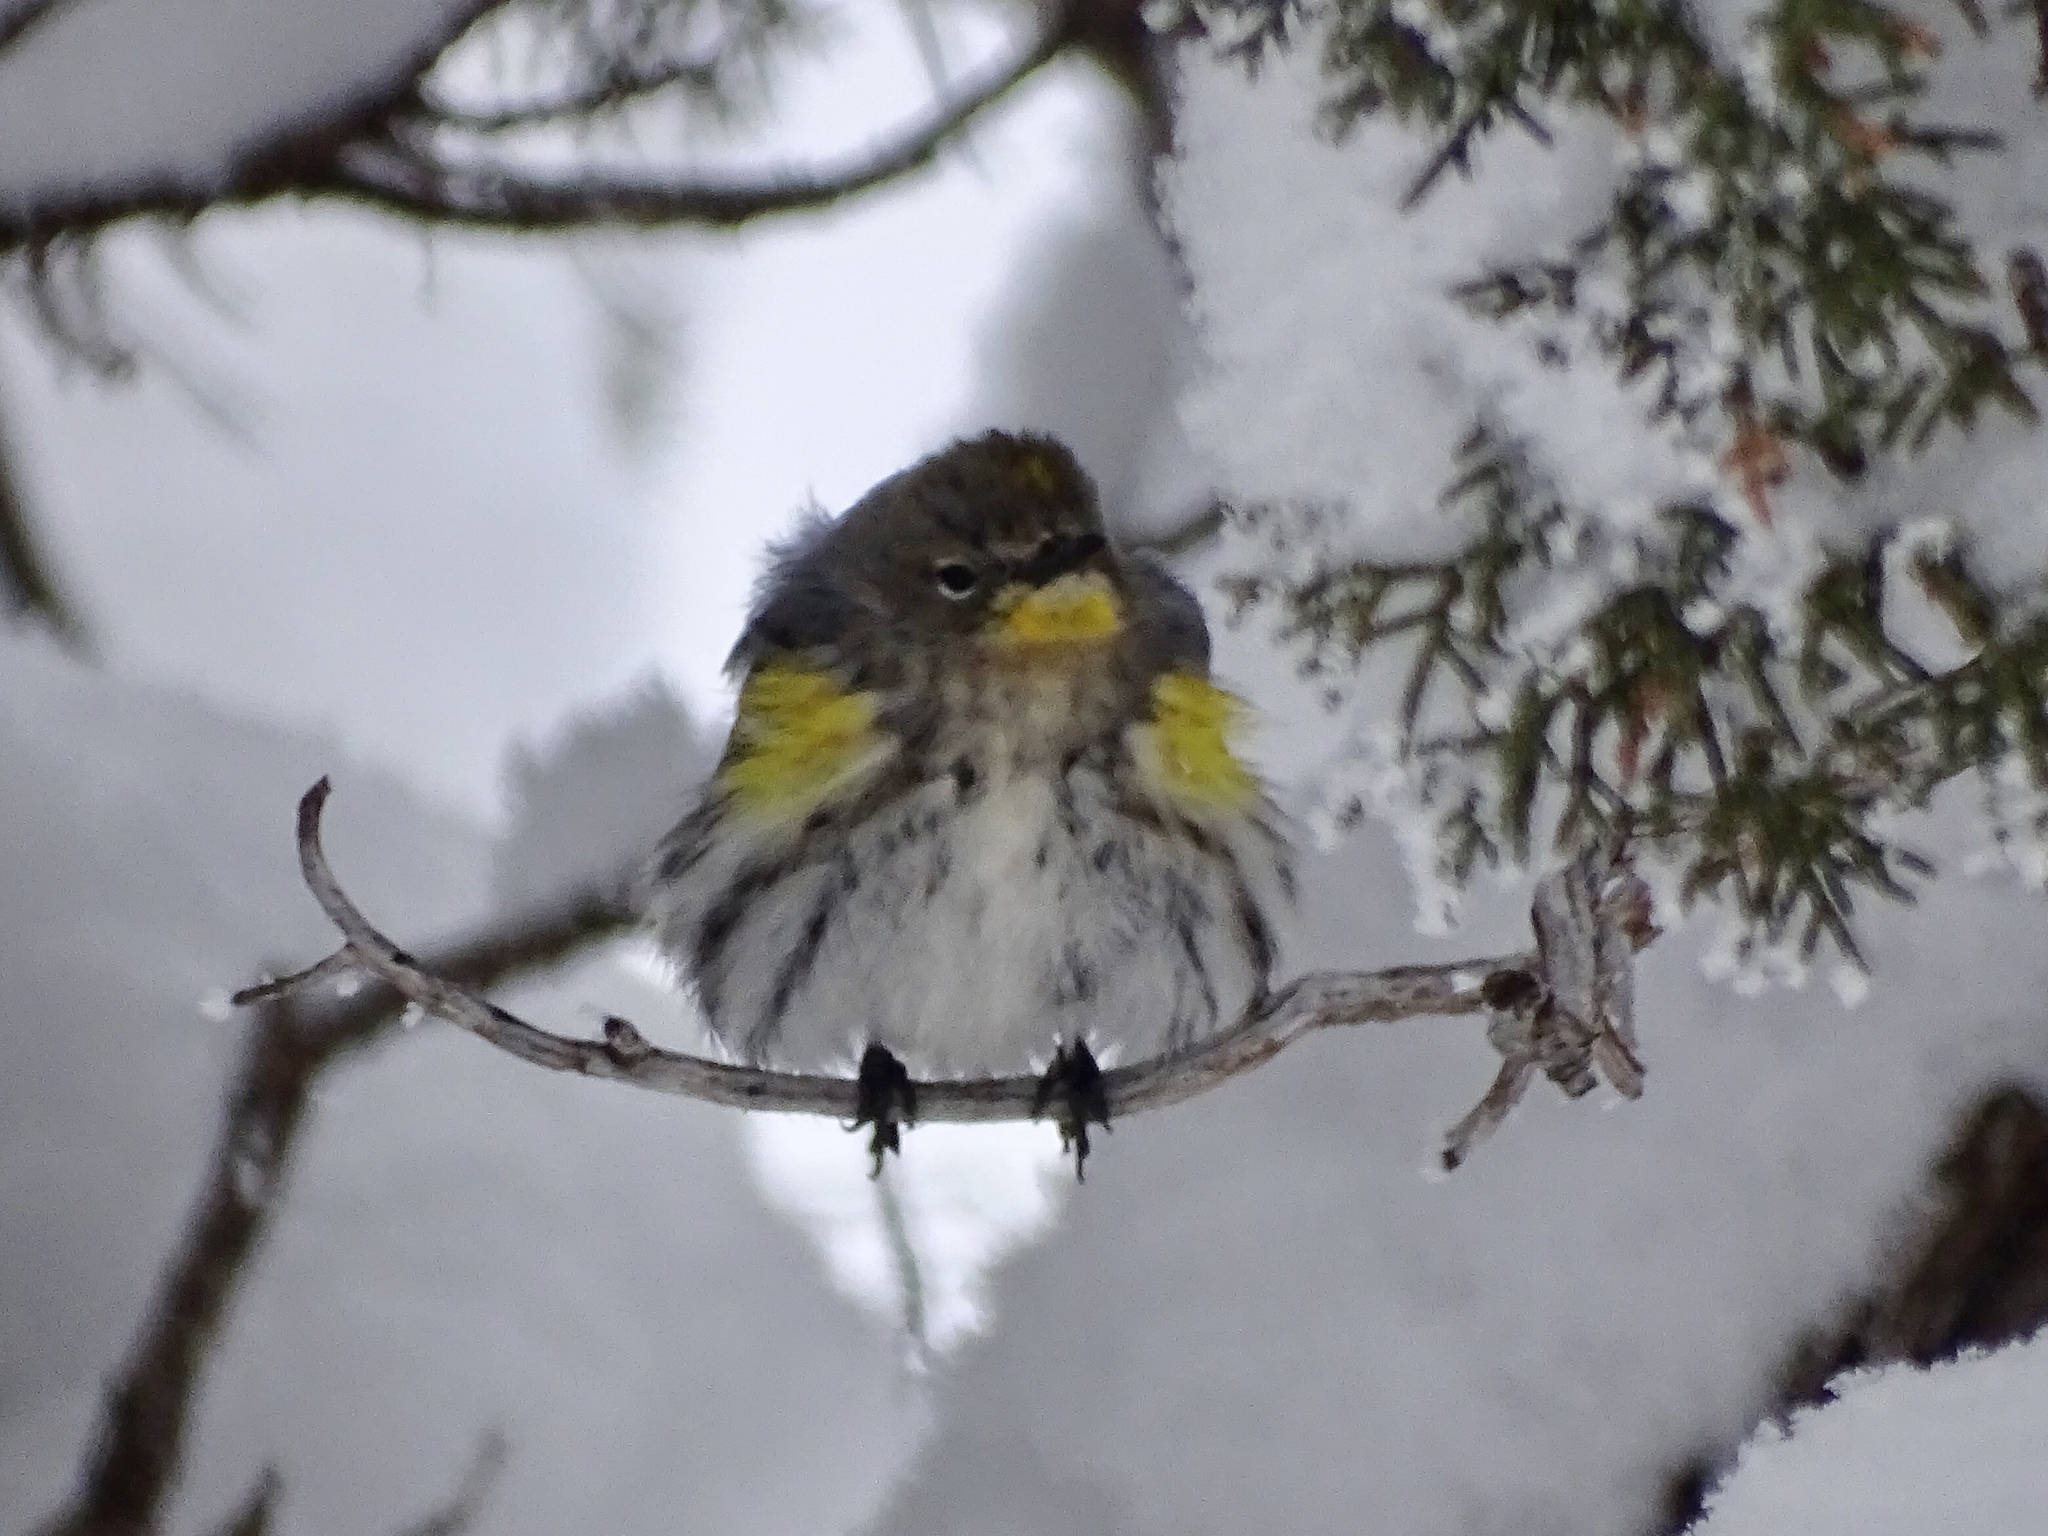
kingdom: Animalia
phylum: Chordata
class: Aves
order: Passeriformes
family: Parulidae
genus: Setophaga
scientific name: Setophaga coronata
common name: Myrtle warbler
